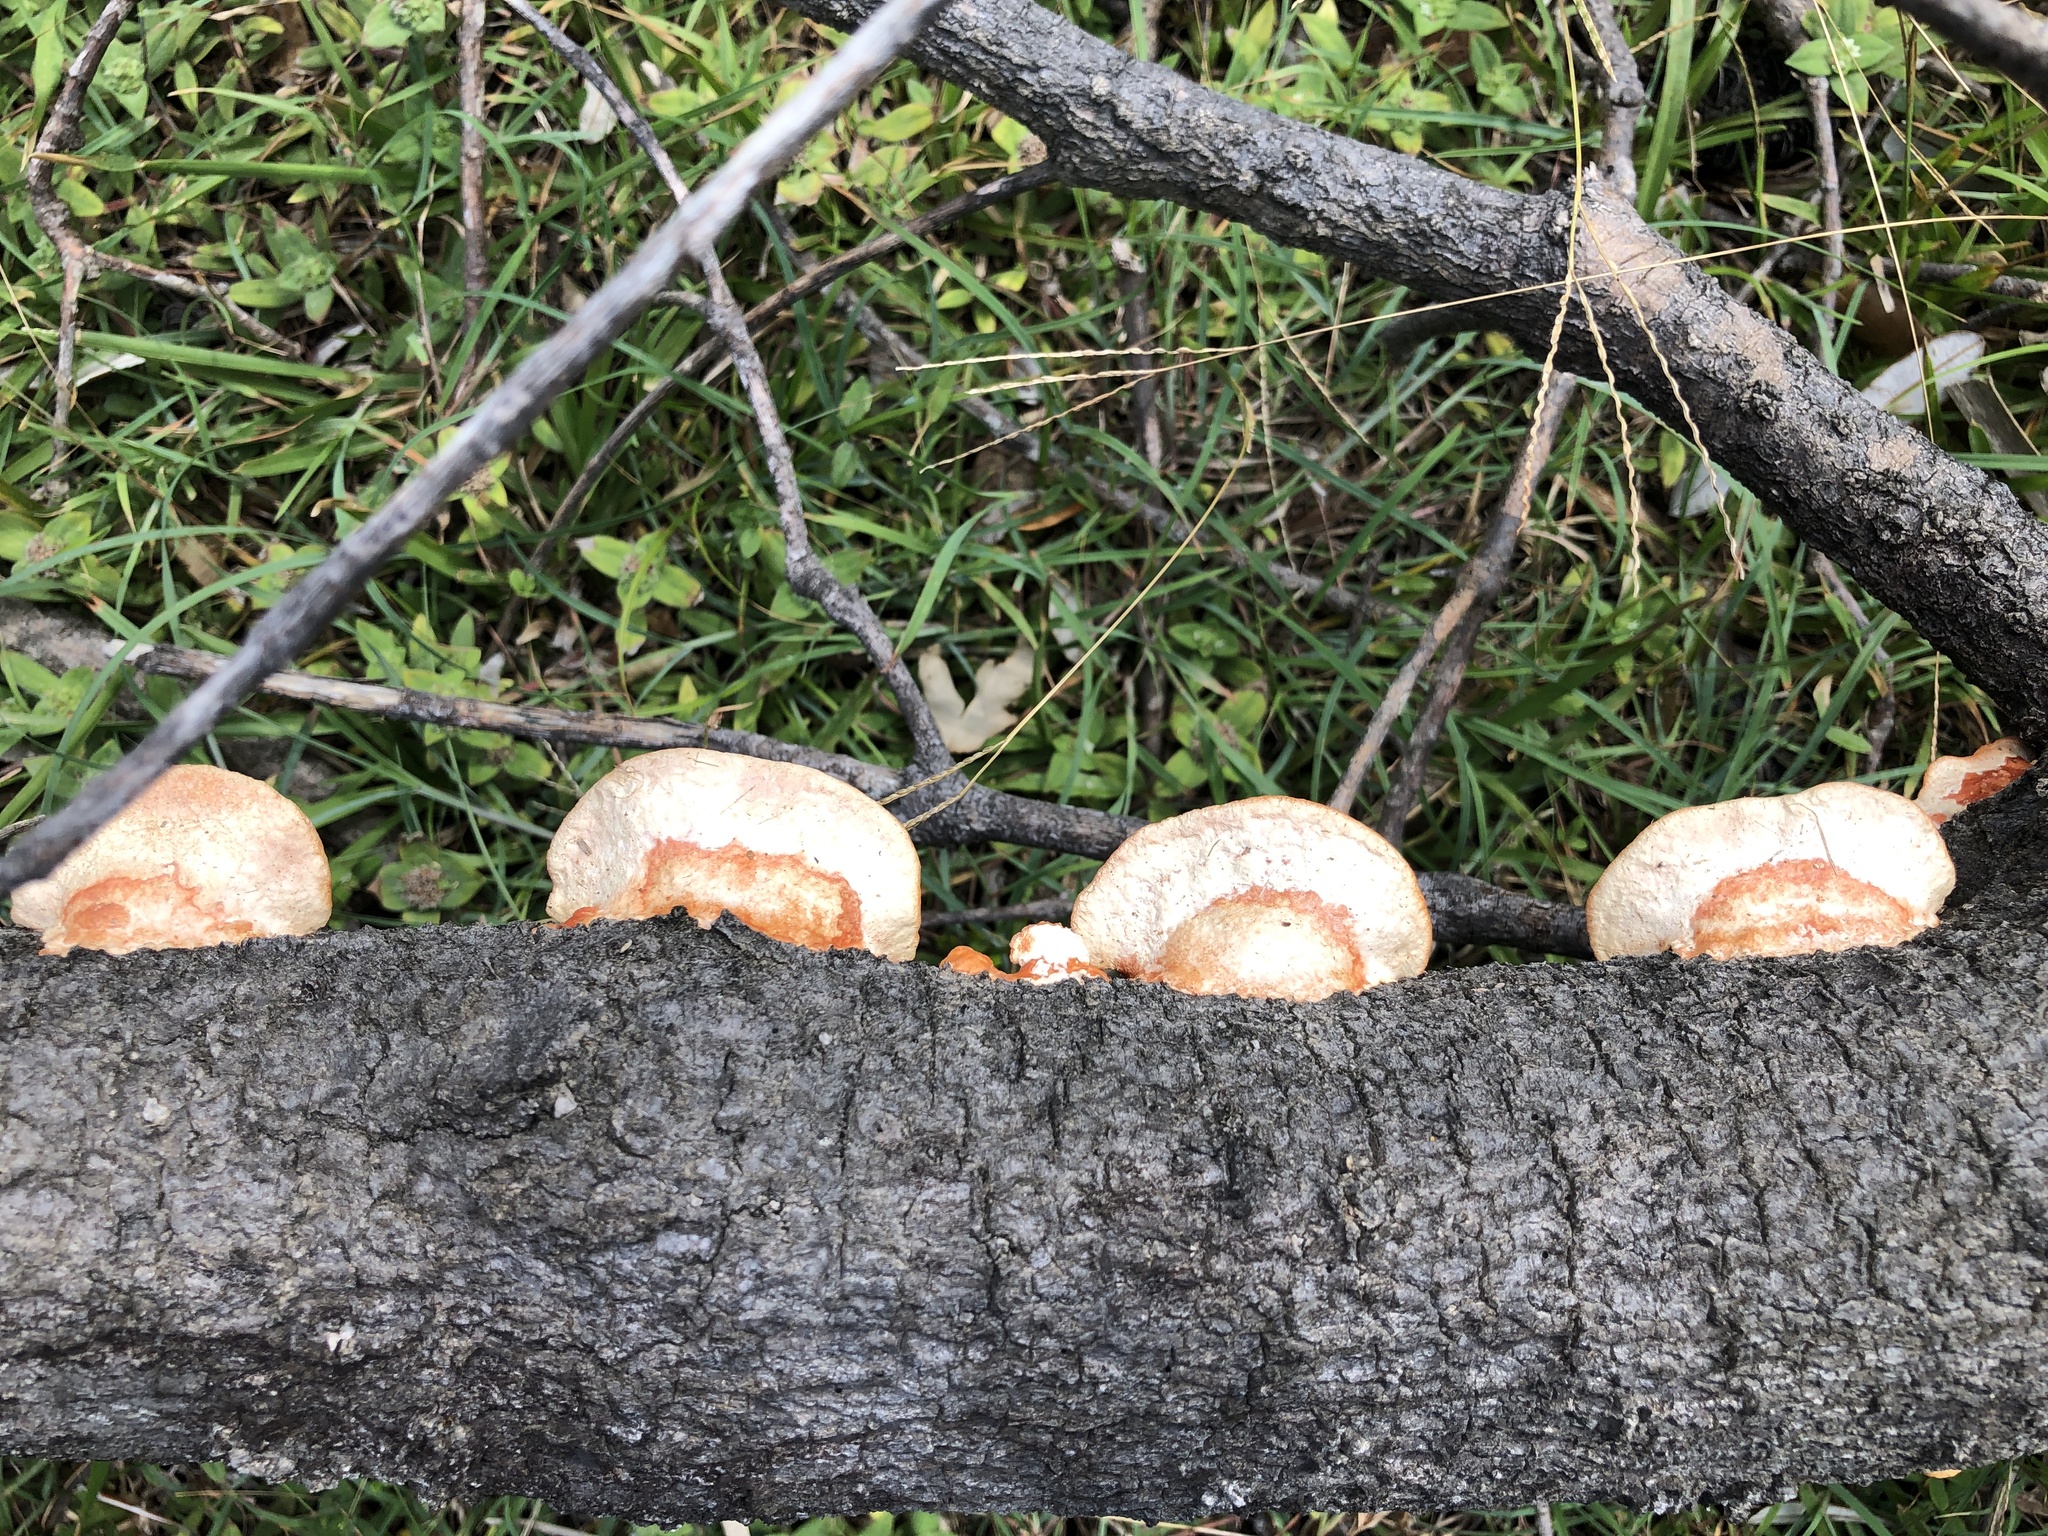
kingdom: Fungi
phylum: Basidiomycota
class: Agaricomycetes
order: Polyporales
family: Polyporaceae
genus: Trametes
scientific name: Trametes coccinea
